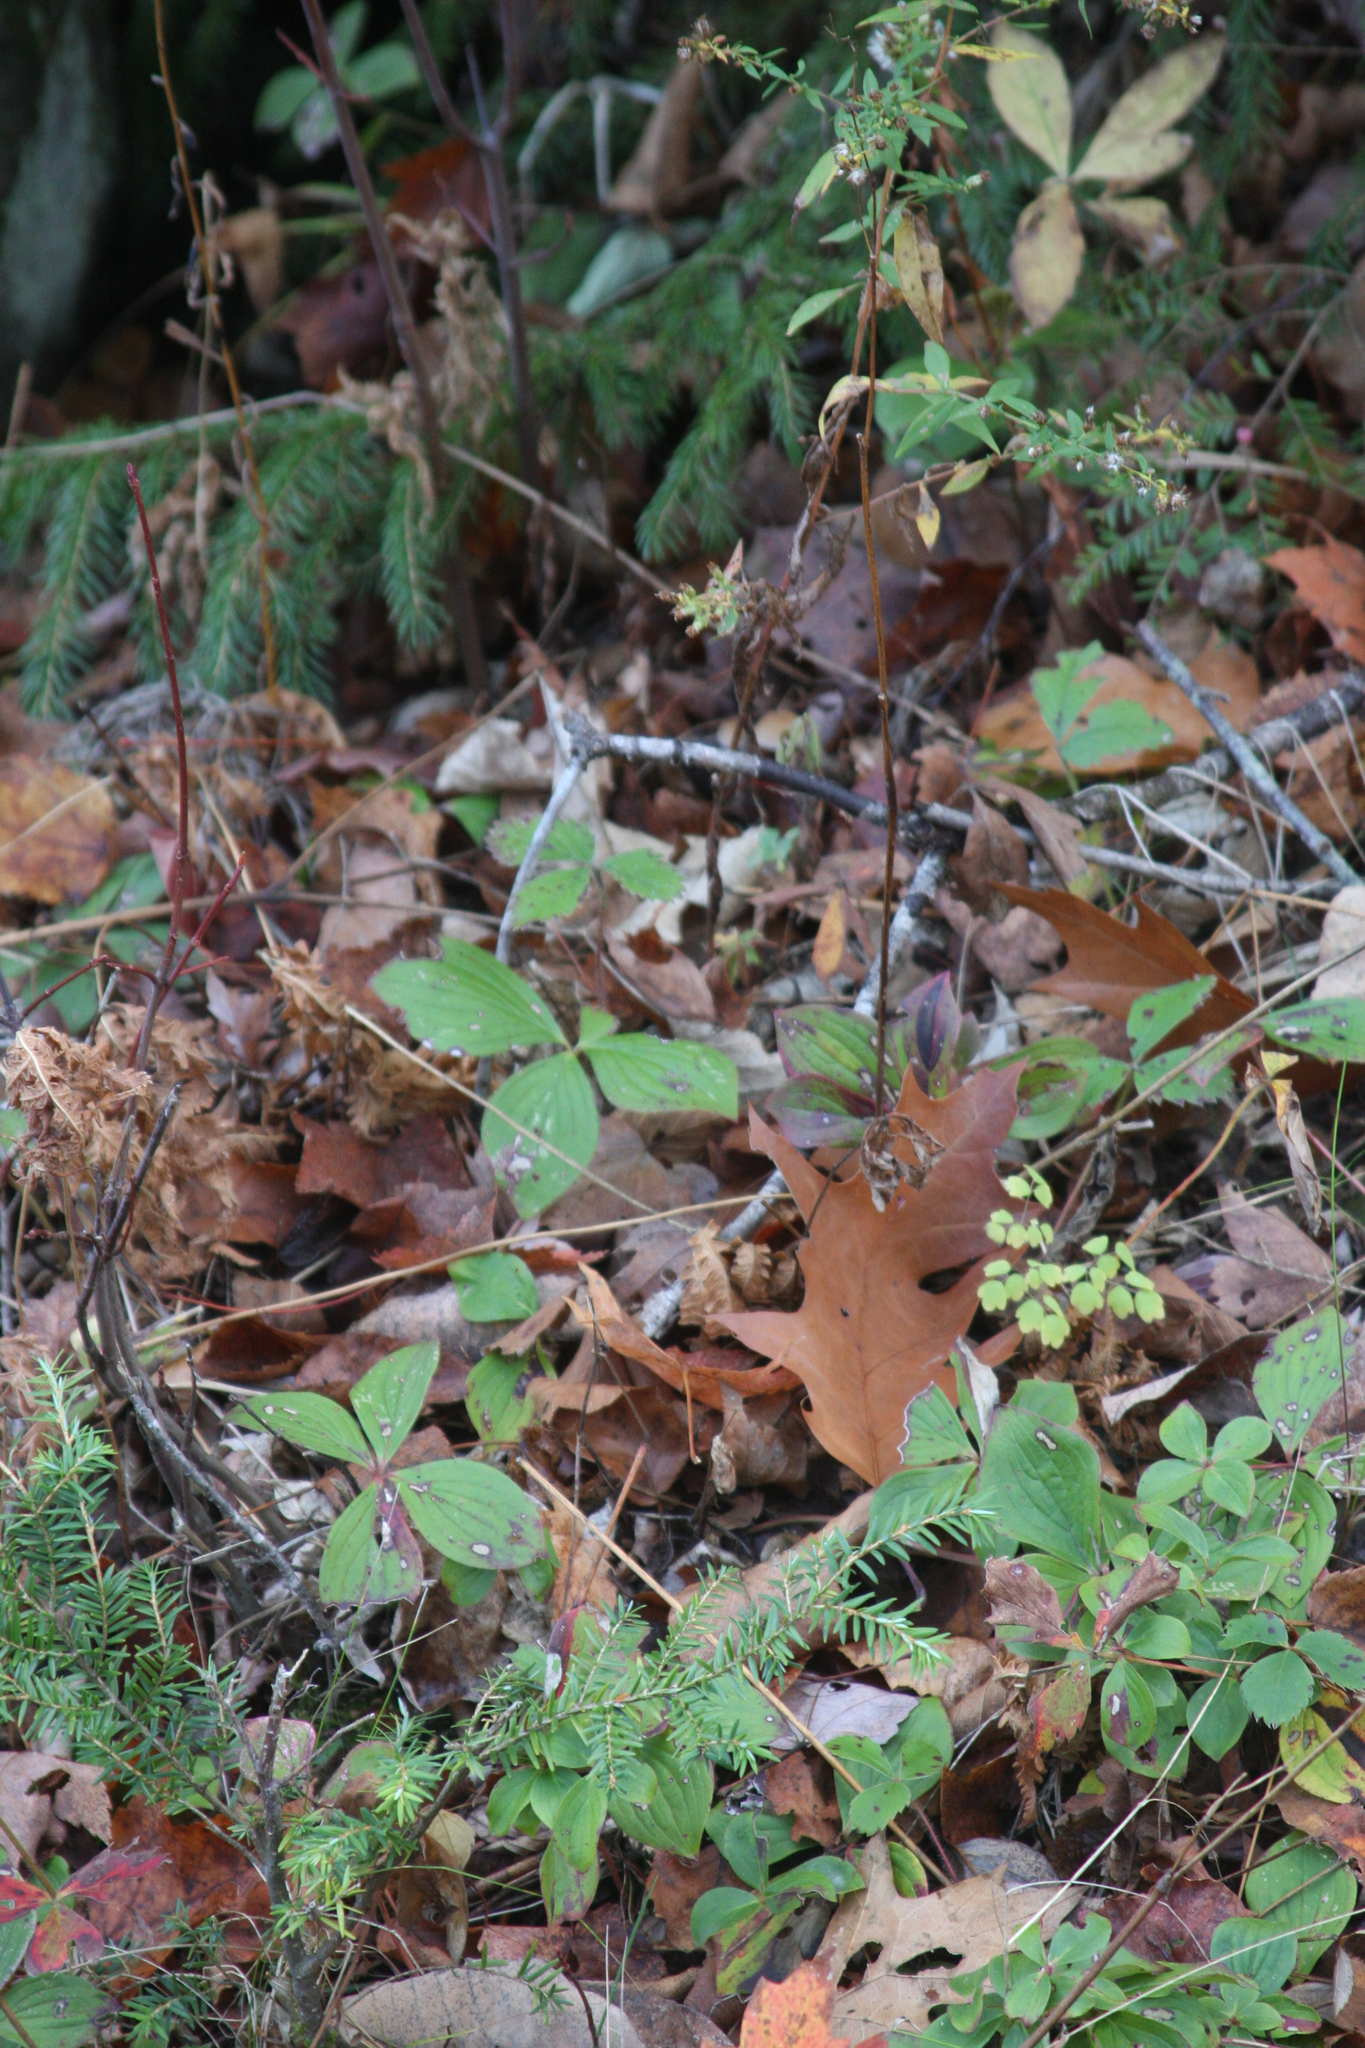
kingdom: Plantae
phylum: Tracheophyta
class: Magnoliopsida
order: Cornales
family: Cornaceae
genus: Cornus
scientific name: Cornus canadensis
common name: Creeping dogwood
